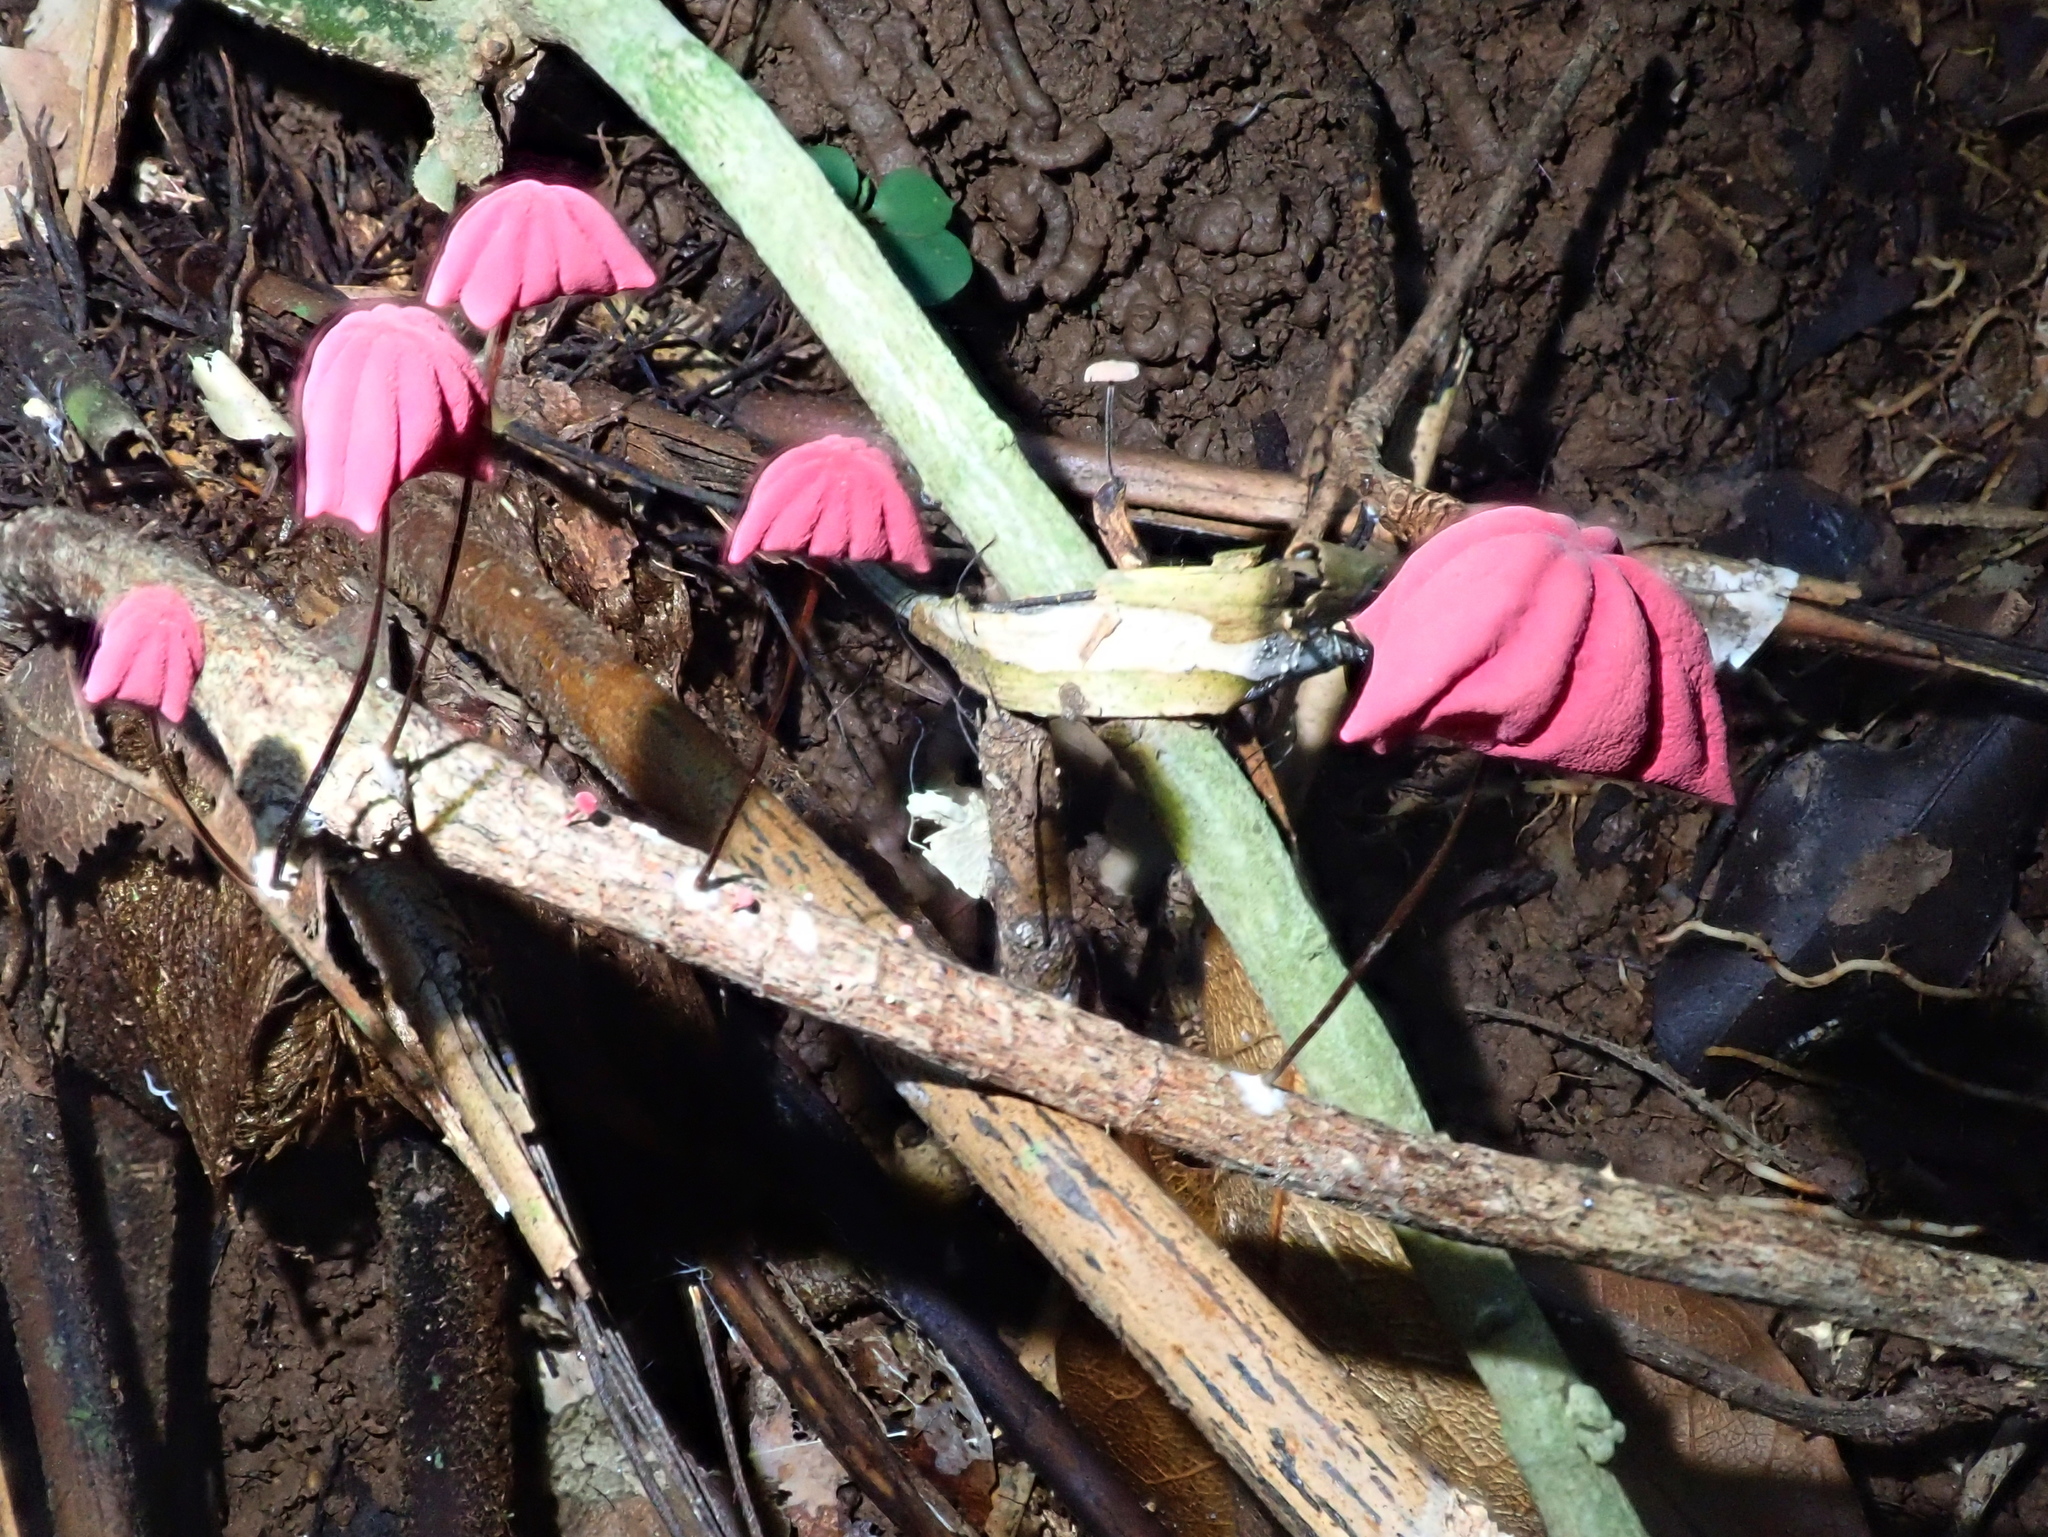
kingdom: Fungi
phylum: Basidiomycota
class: Agaricomycetes
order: Agaricales
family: Marasmiaceae
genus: Marasmius
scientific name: Marasmius haematocephalus
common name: Purple pinwheel
